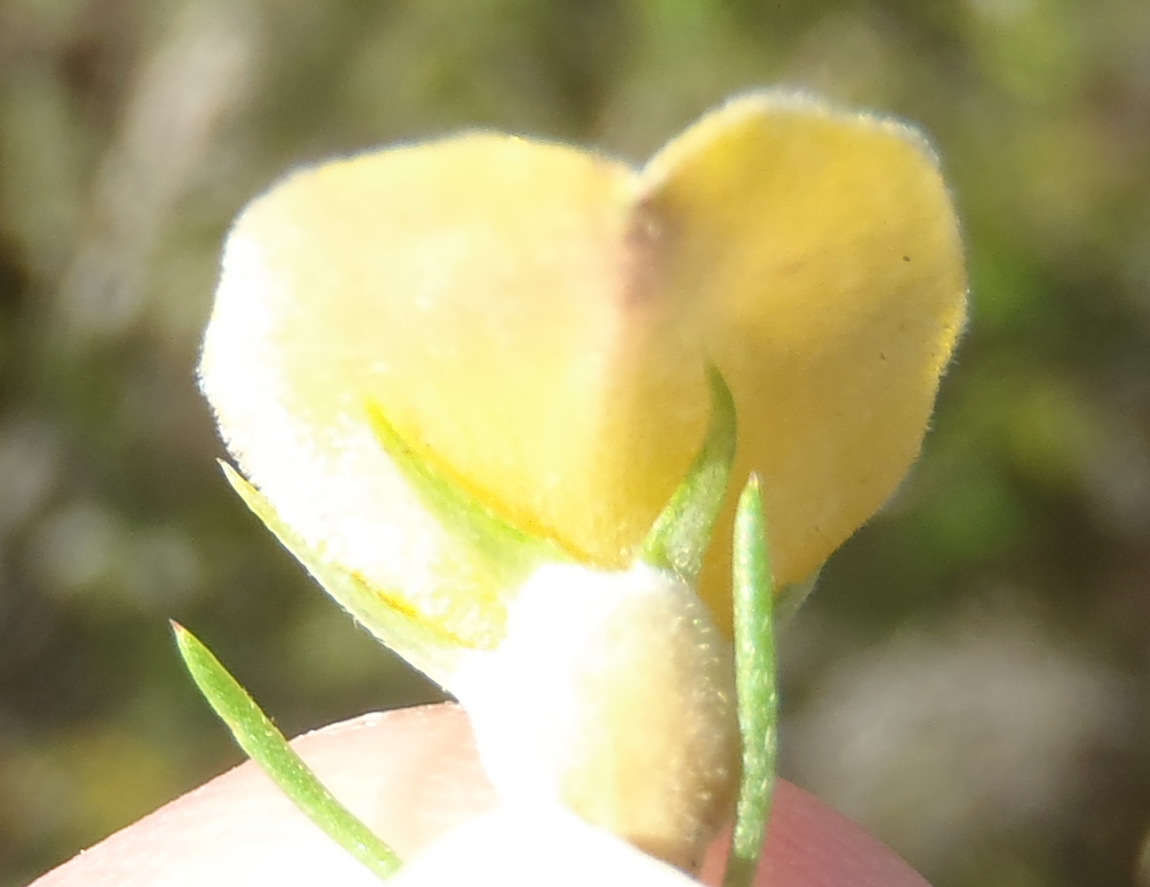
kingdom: Plantae
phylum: Tracheophyta
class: Magnoliopsida
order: Fabales
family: Fabaceae
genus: Aspalathus
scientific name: Aspalathus kougaensis
